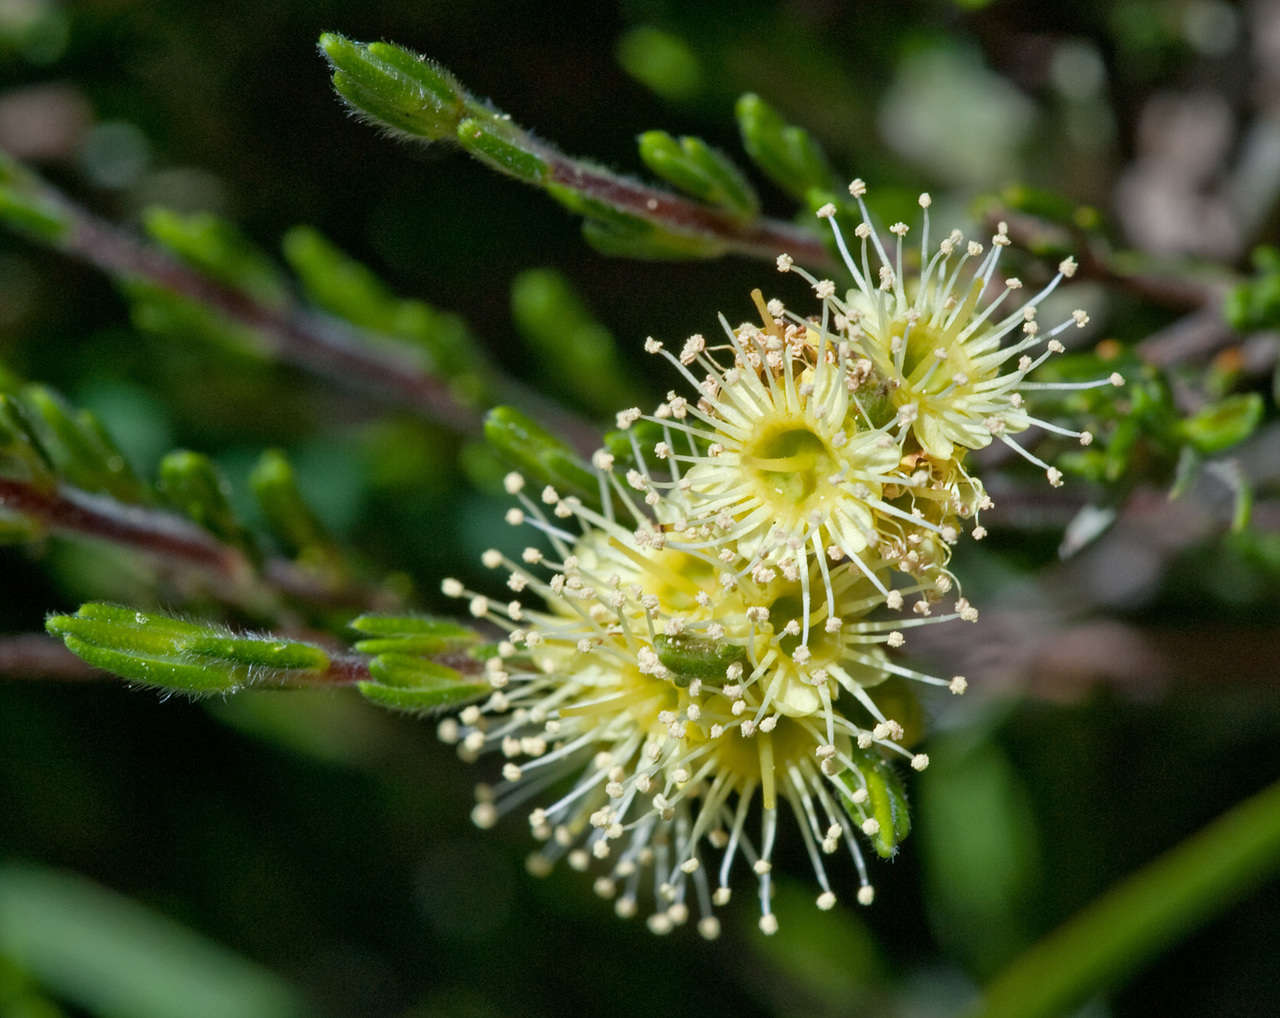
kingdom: Plantae
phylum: Tracheophyta
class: Magnoliopsida
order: Myrtales
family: Myrtaceae
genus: Kunzea
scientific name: Kunzea muelleri
